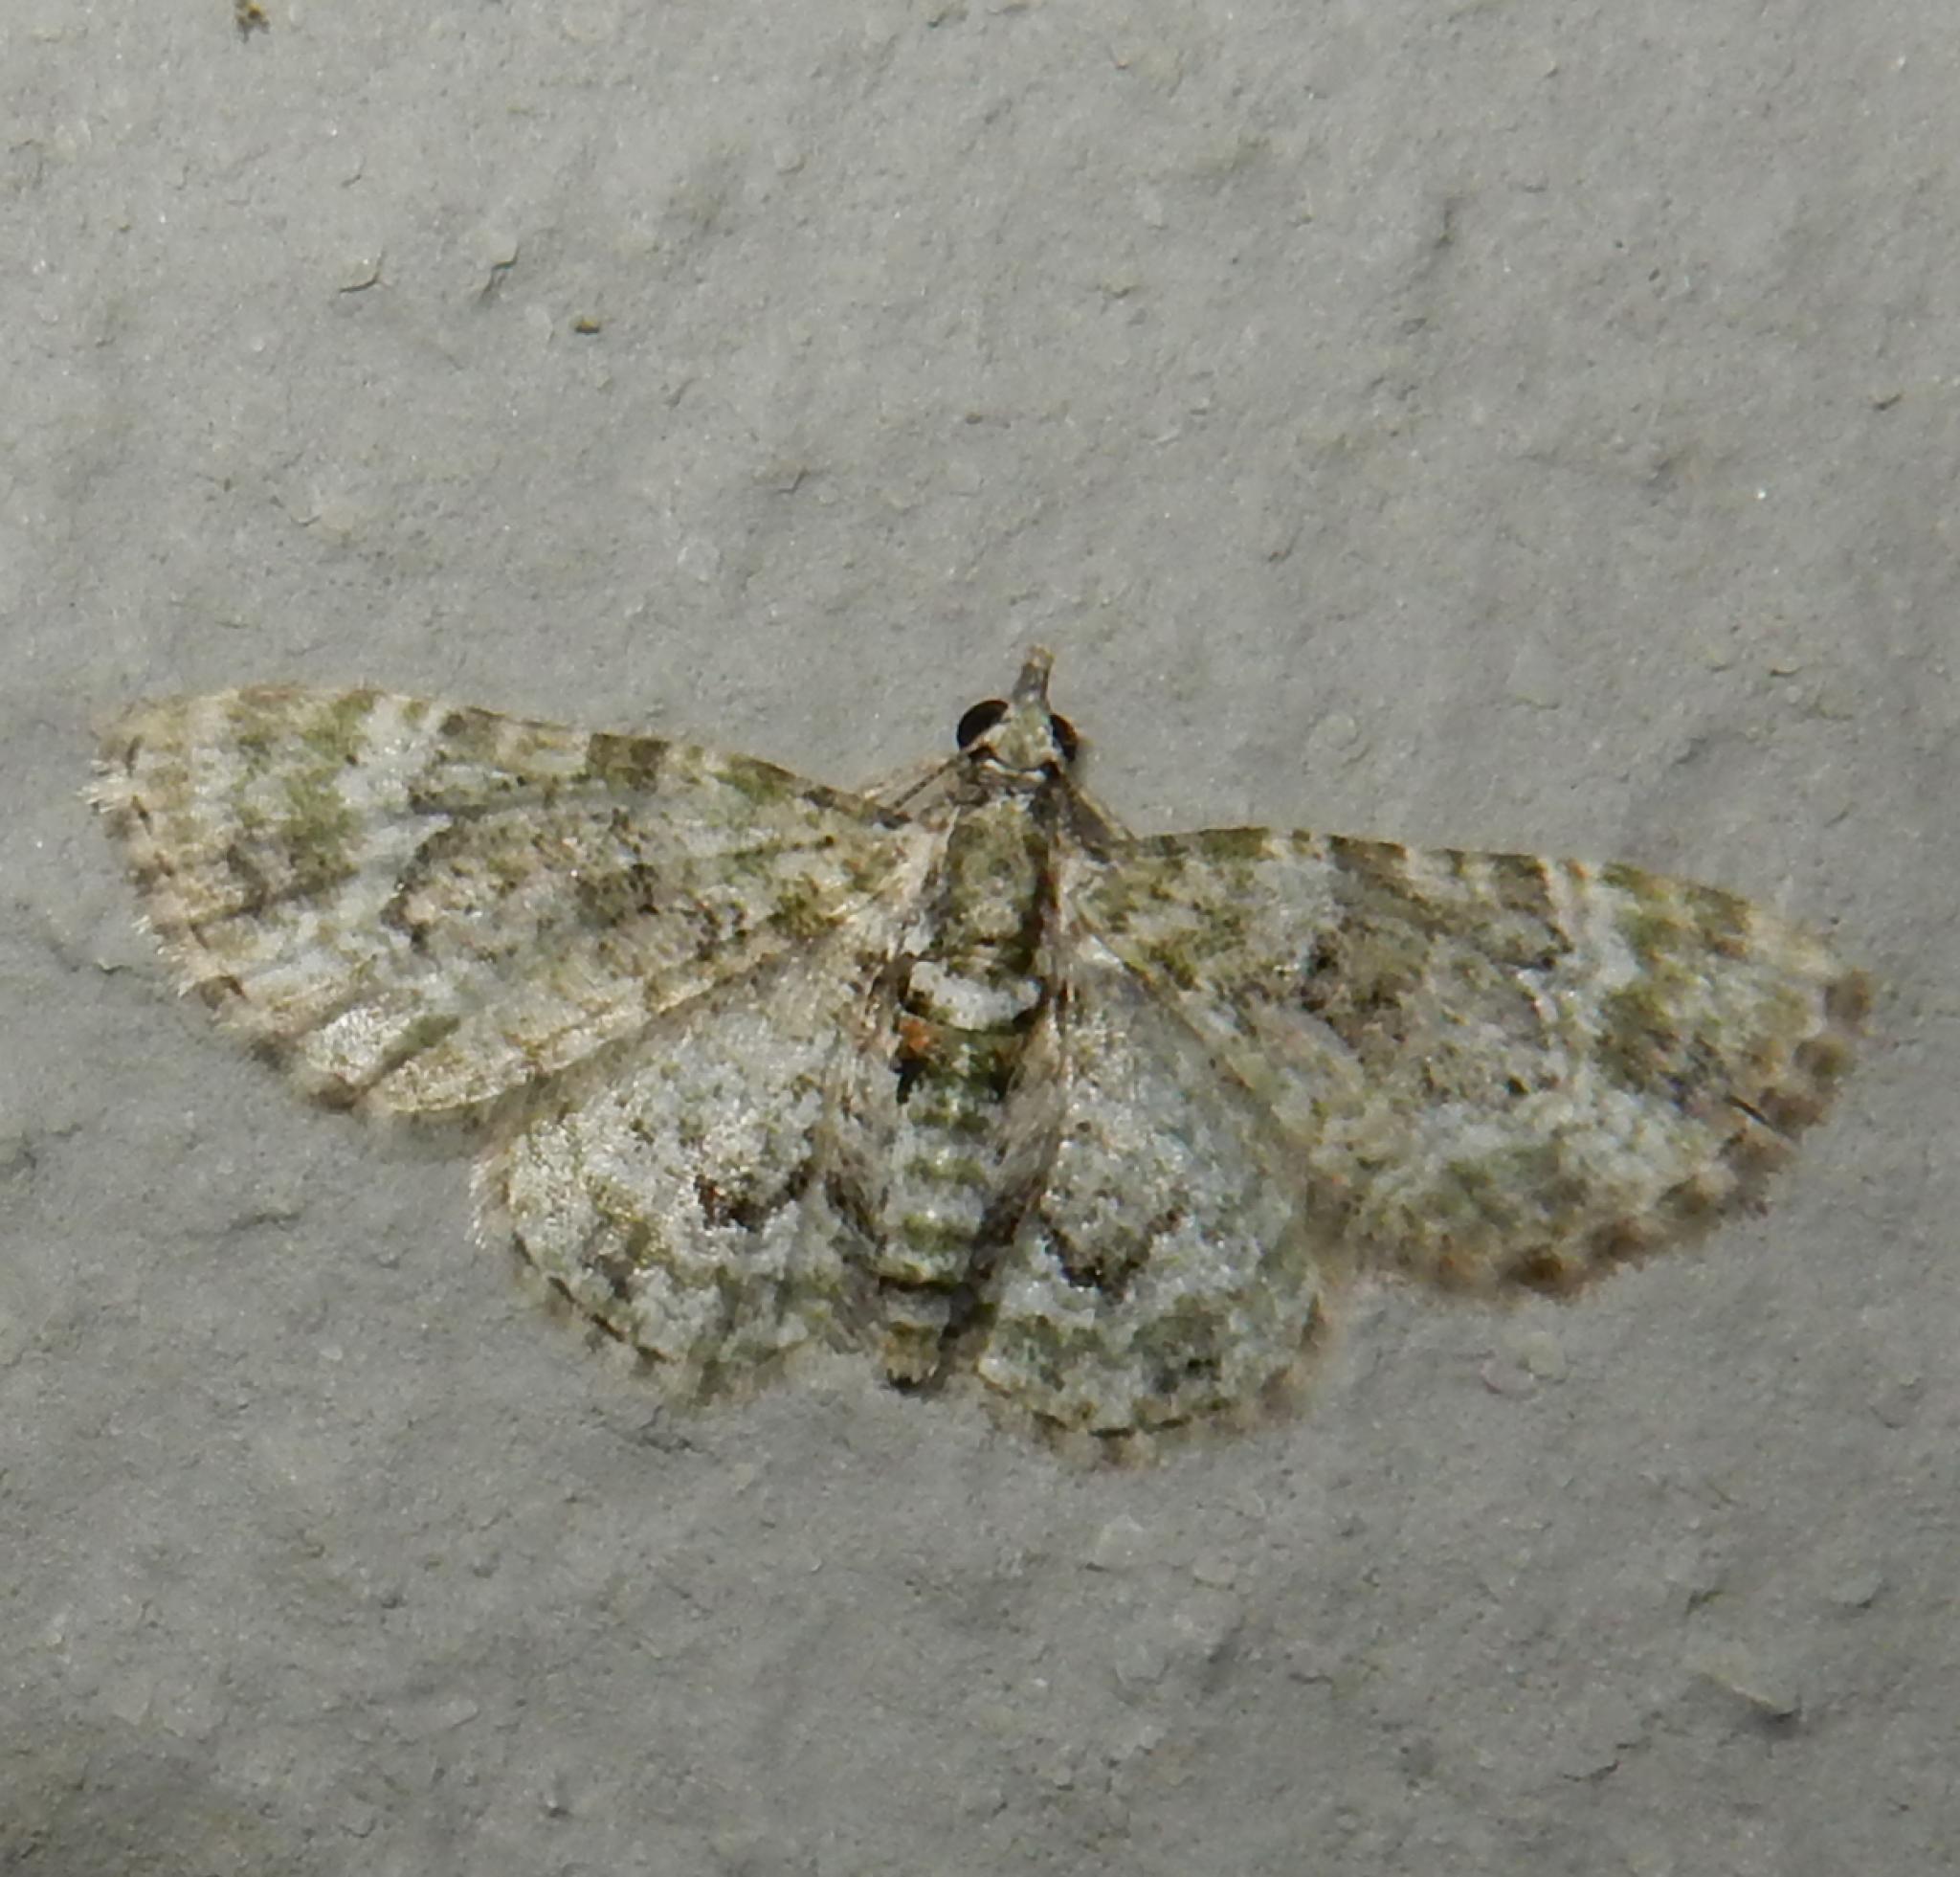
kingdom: Animalia
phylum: Arthropoda
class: Insecta
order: Lepidoptera
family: Geometridae
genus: Myrioblephara
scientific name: Myrioblephara muscosa
